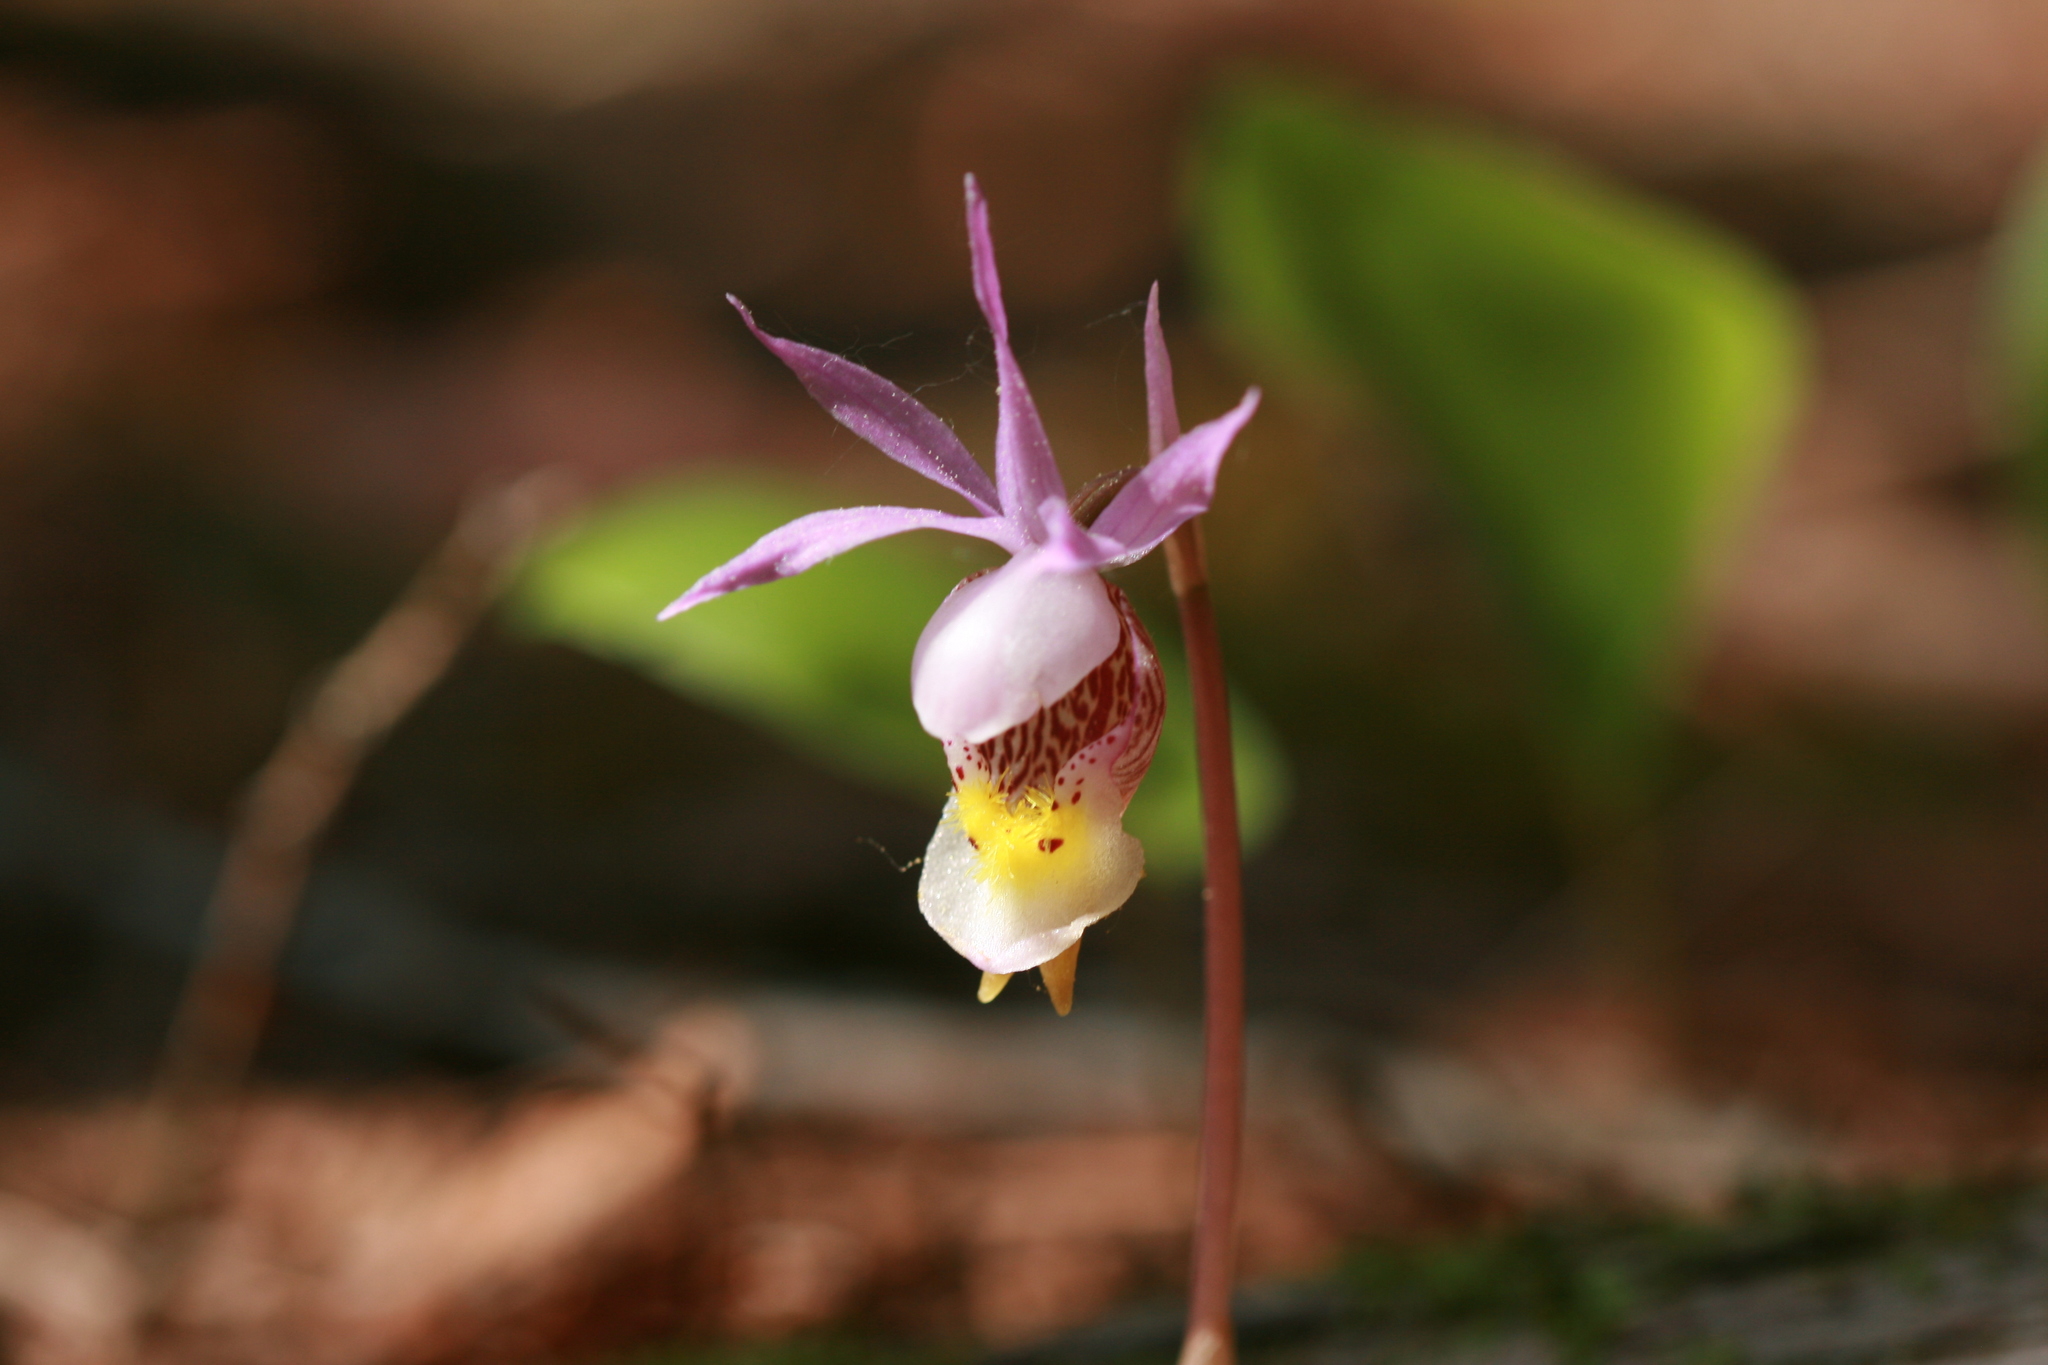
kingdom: Plantae
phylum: Tracheophyta
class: Liliopsida
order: Asparagales
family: Orchidaceae
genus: Calypso
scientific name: Calypso bulbosa
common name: Calypso
